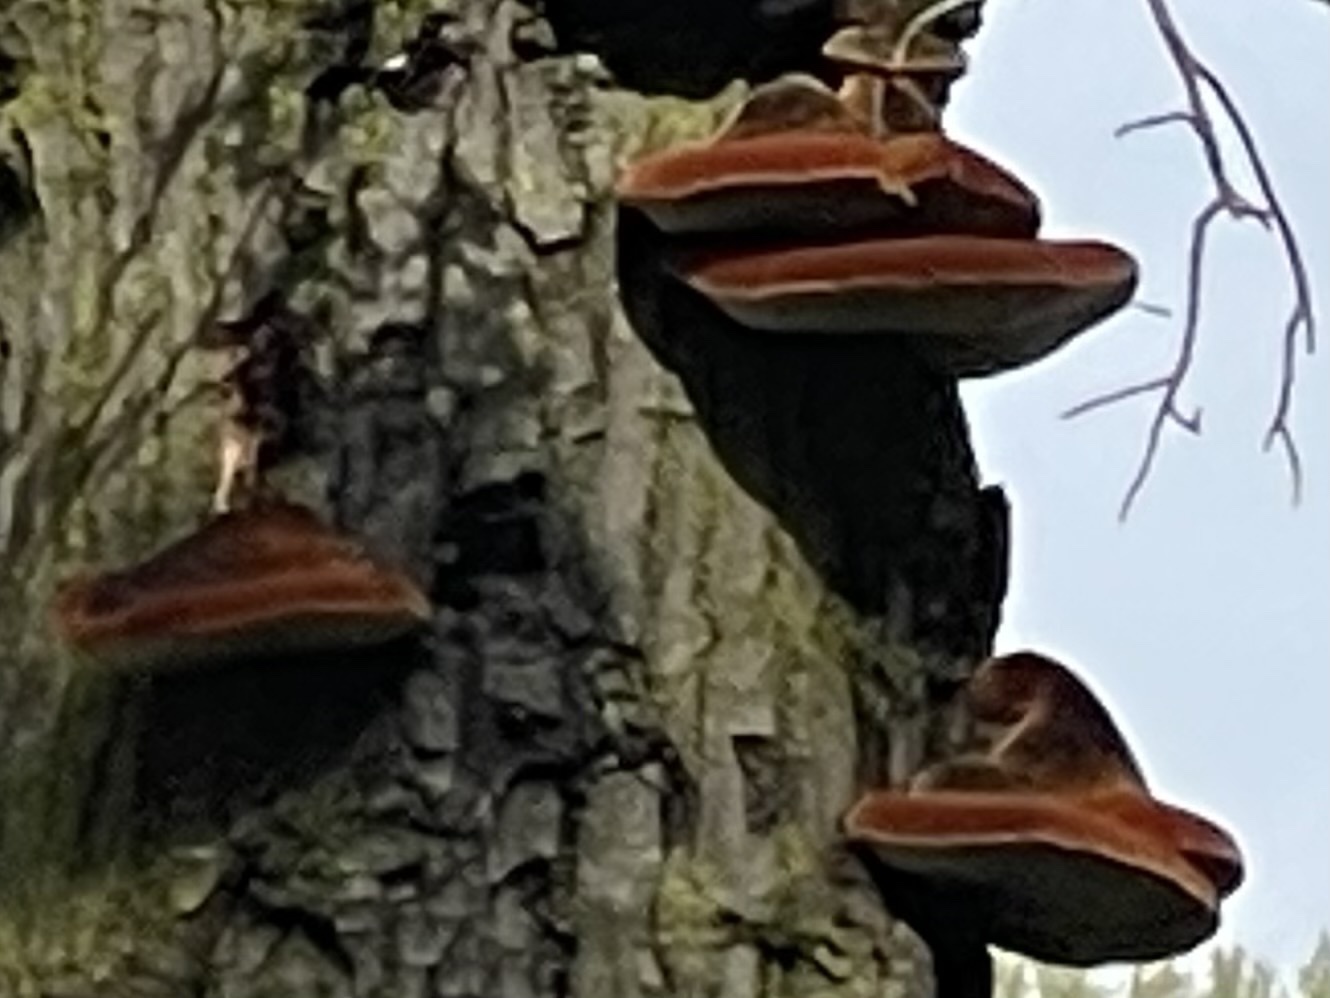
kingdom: Fungi
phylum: Basidiomycota
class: Agaricomycetes
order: Hymenochaetales
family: Hymenochaetaceae
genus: Inonotus
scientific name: Inonotus hispidus
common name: Shaggy bracket
